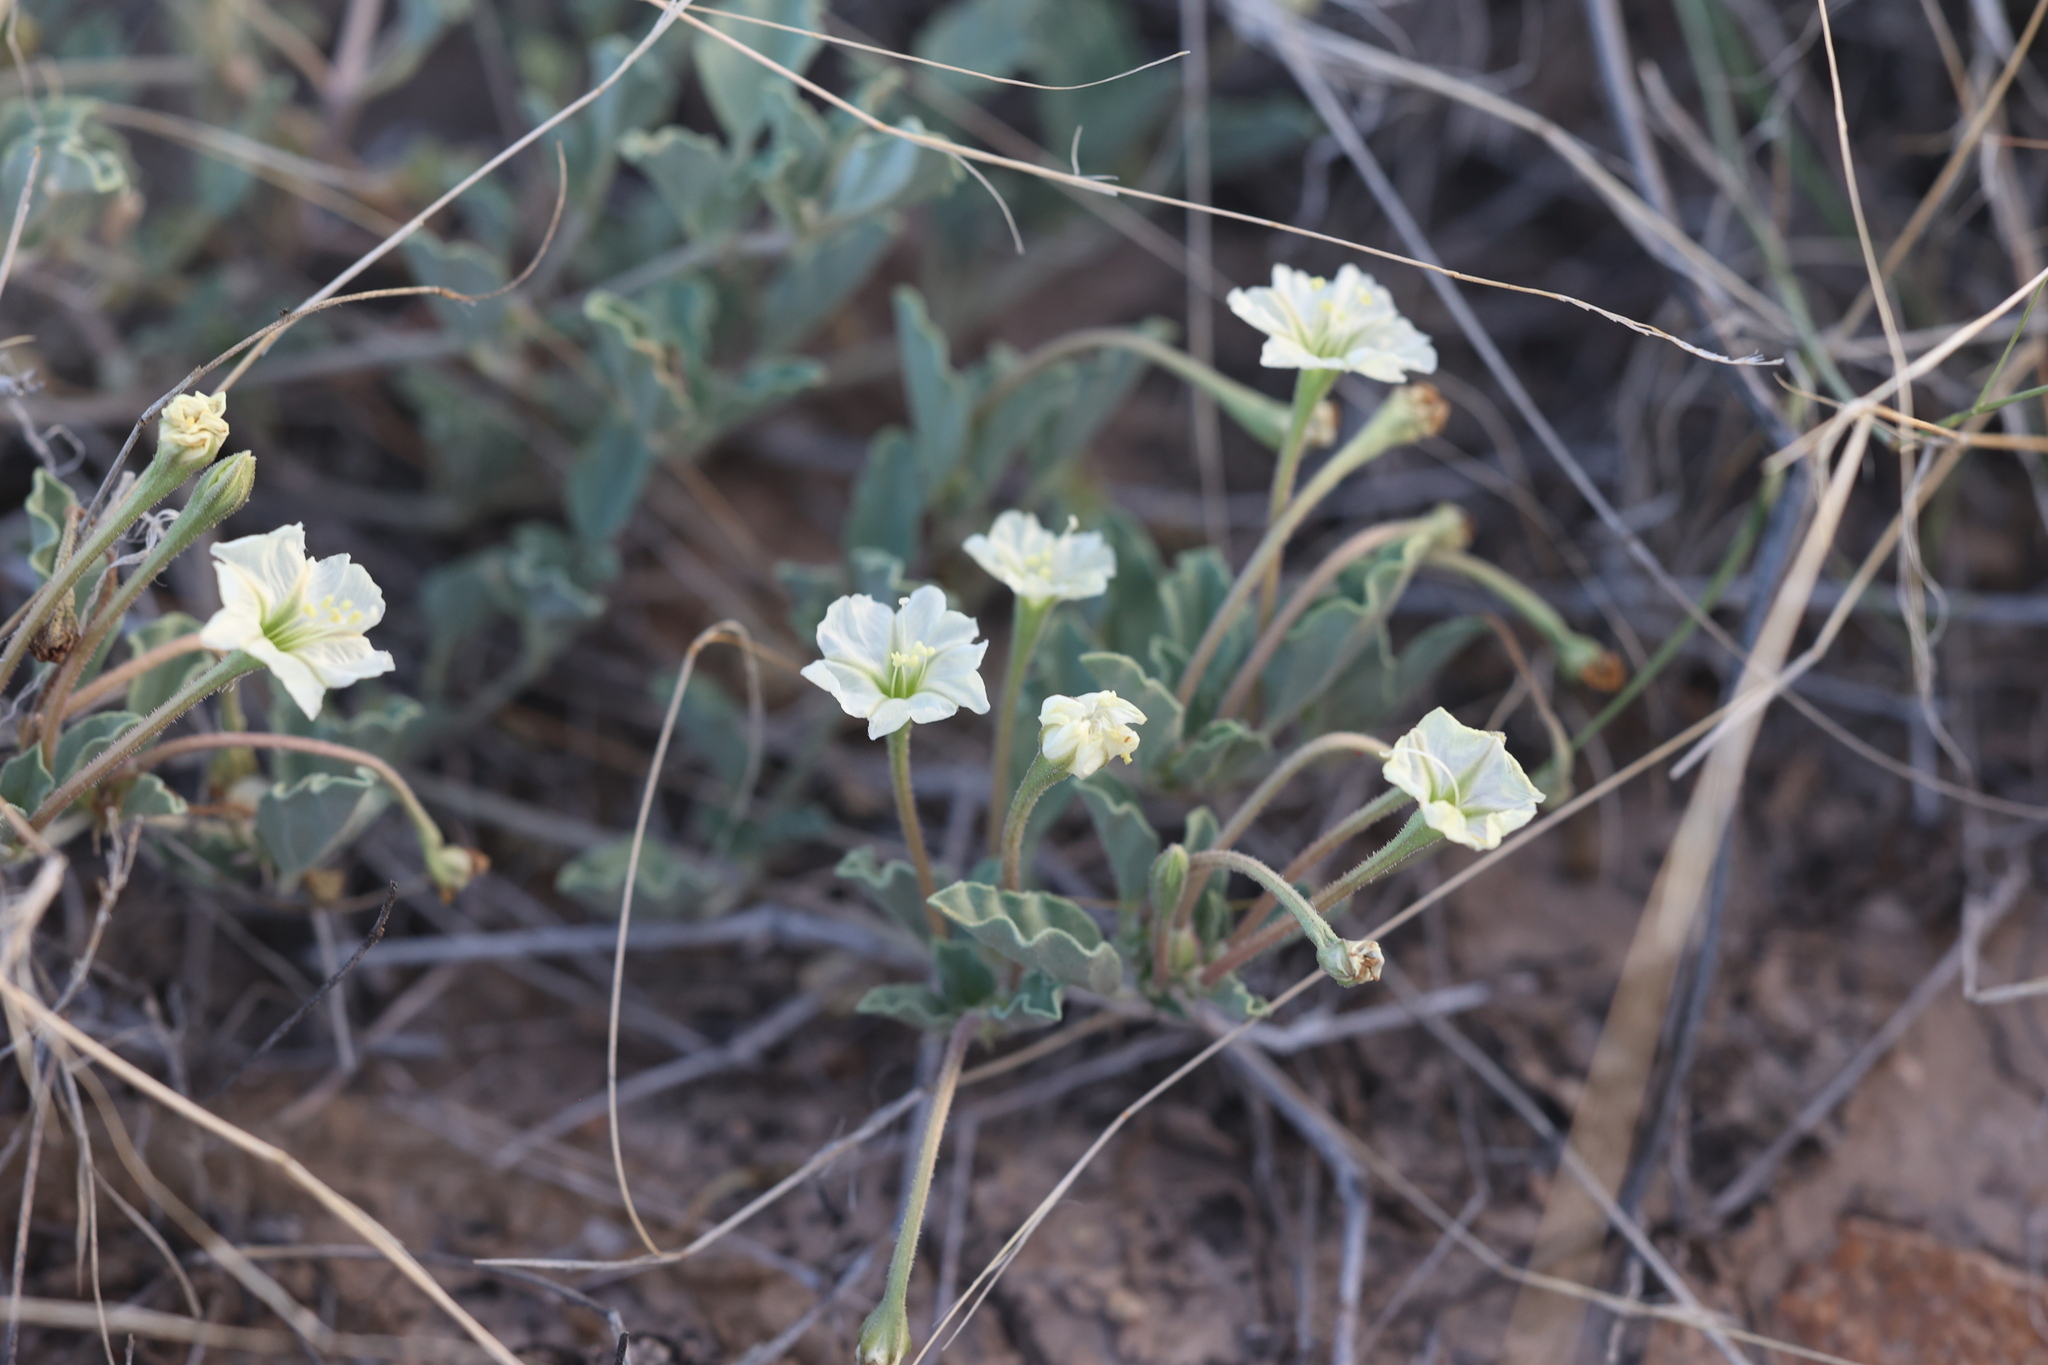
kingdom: Plantae
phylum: Tracheophyta
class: Magnoliopsida
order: Caryophyllales
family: Nyctaginaceae
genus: Acleisanthes
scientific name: Acleisanthes diffusa
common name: Spreading moonpod
